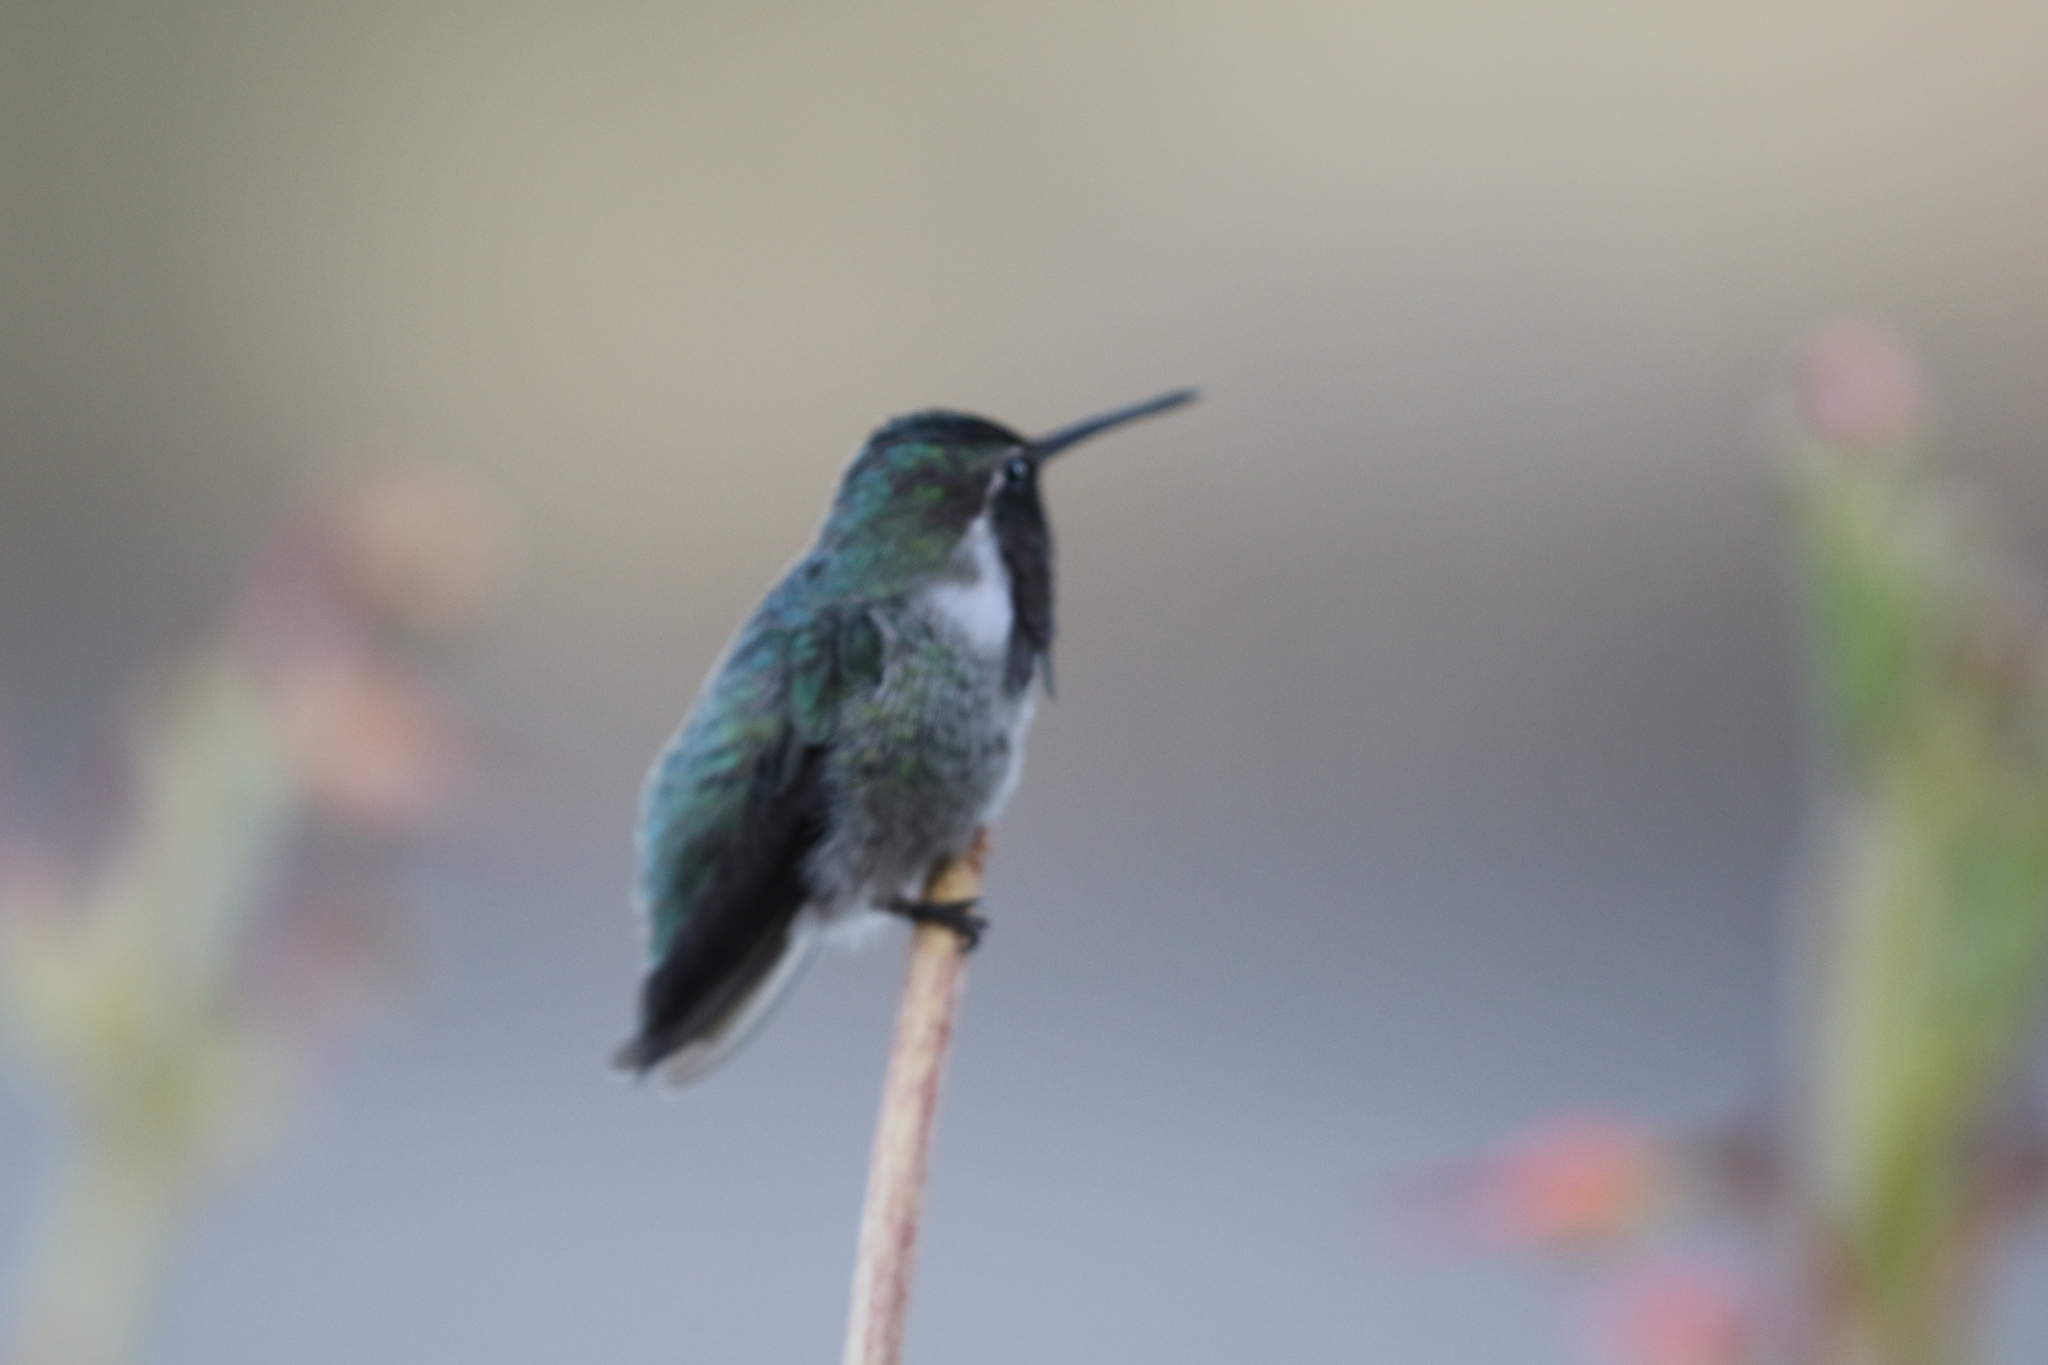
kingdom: Animalia
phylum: Chordata
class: Aves
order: Apodiformes
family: Trochilidae
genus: Calypte
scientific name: Calypte costae
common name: Costa's hummingbird
